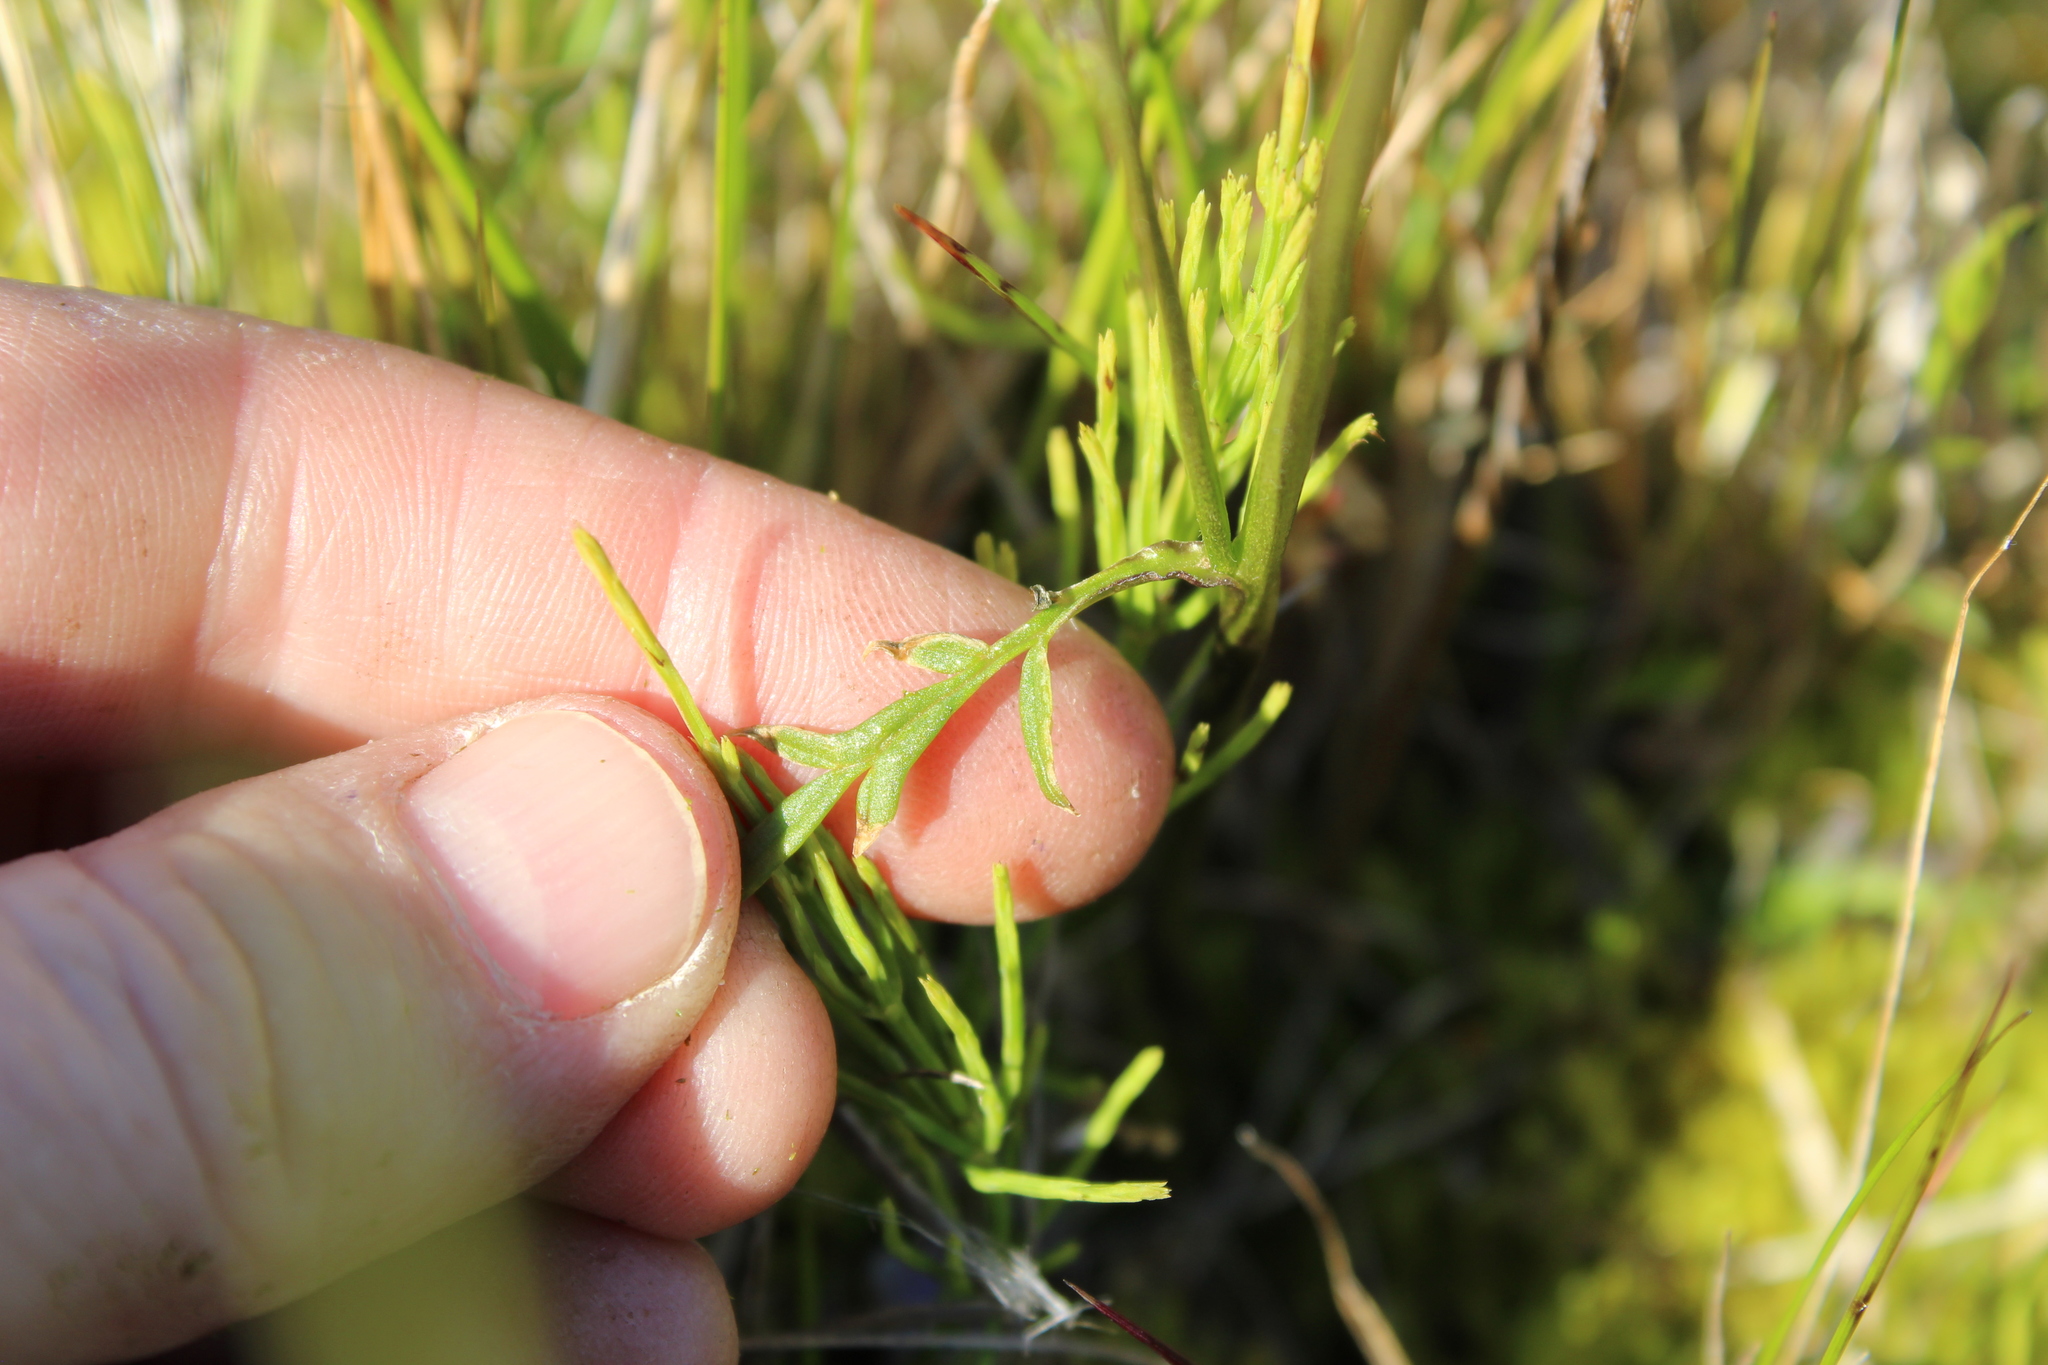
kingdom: Plantae
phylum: Tracheophyta
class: Magnoliopsida
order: Ericales
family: Polemoniaceae
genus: Polemonium
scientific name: Polemonium acutiflorum
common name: Tall jacob's-ladder
